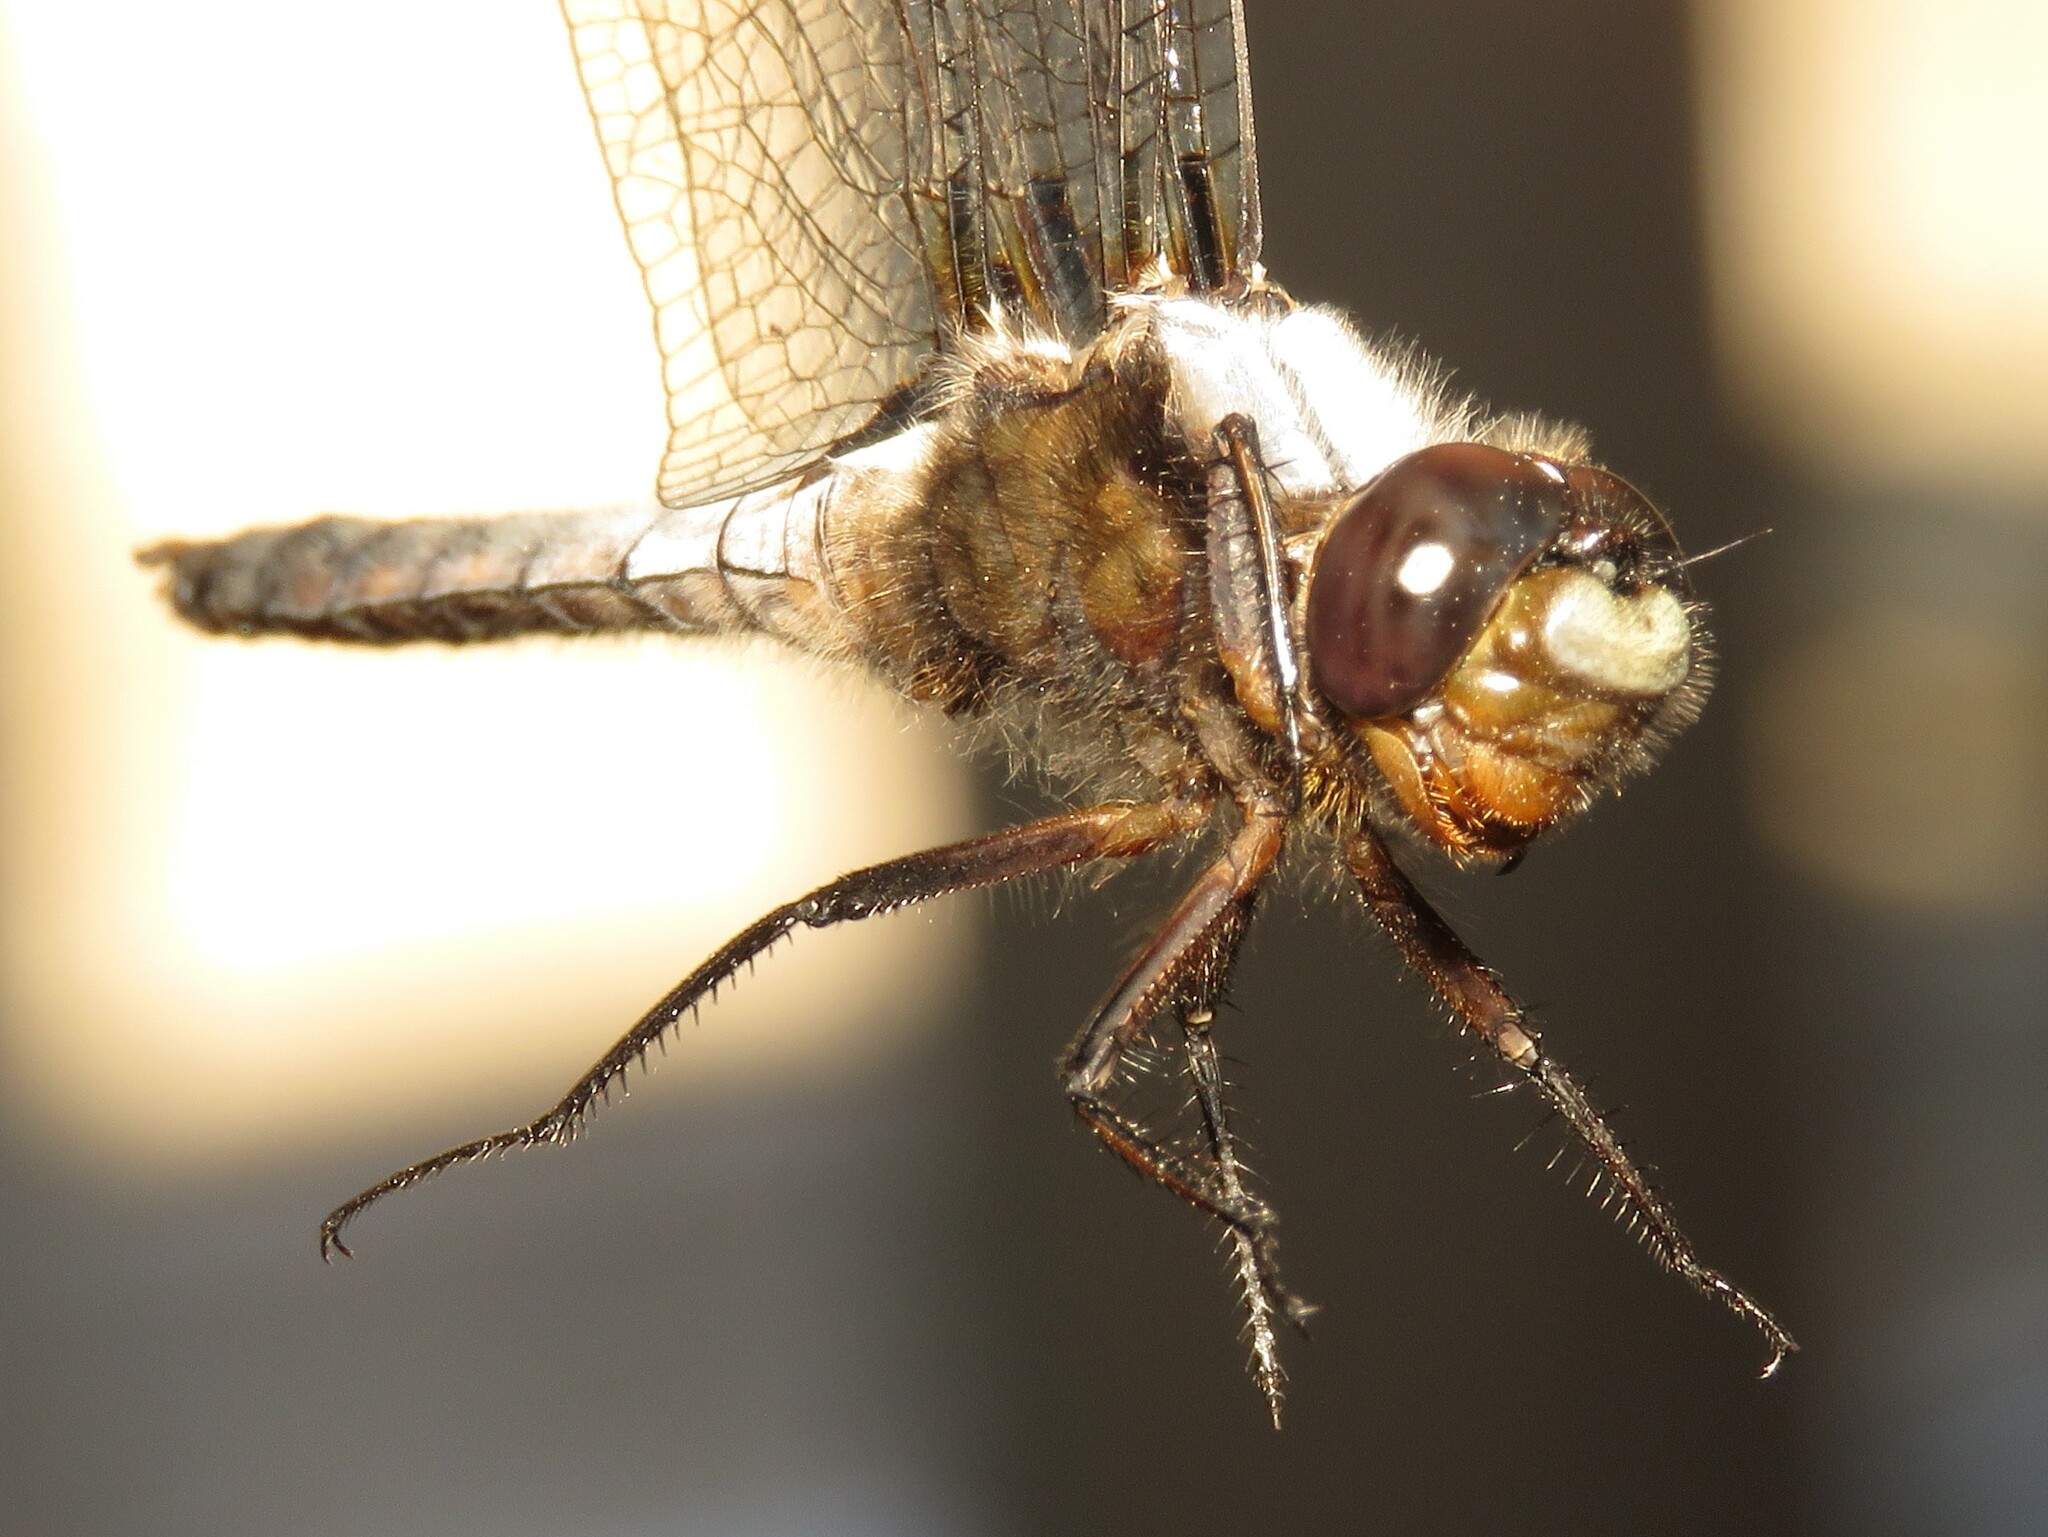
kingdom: Animalia
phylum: Arthropoda
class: Insecta
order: Odonata
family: Libellulidae
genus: Ladona
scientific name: Ladona julia
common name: Chalk-fronted corporal
